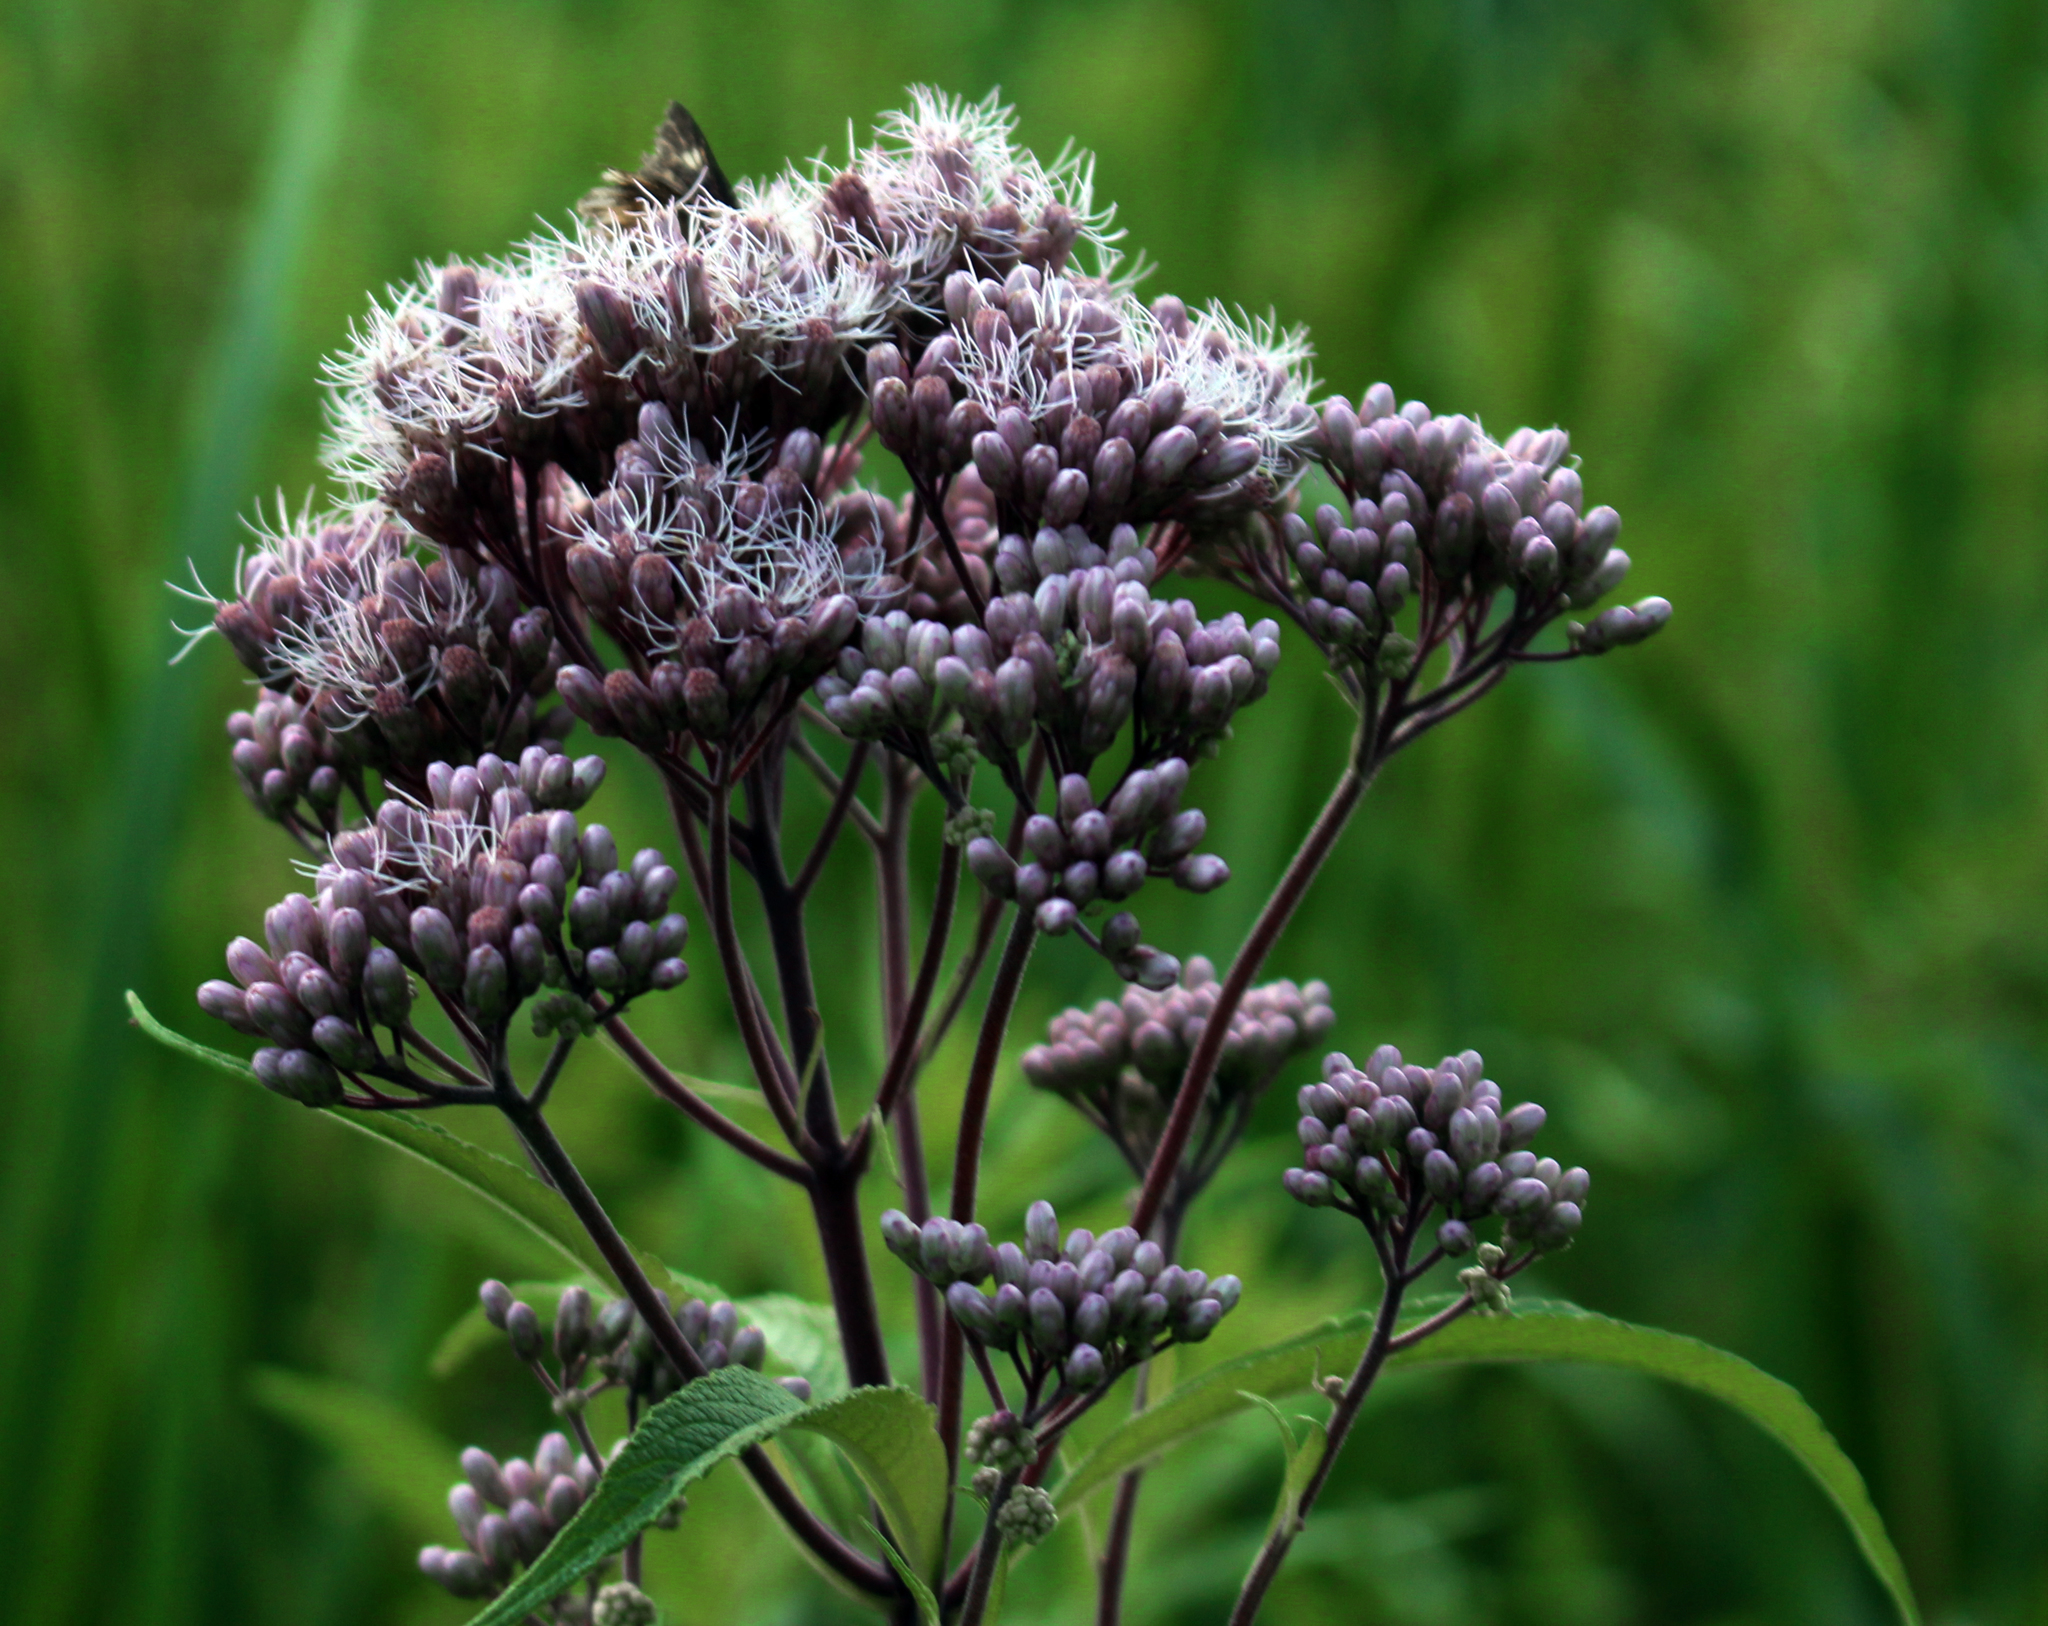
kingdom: Plantae
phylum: Tracheophyta
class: Magnoliopsida
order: Asterales
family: Asteraceae
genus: Eutrochium
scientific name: Eutrochium maculatum
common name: Spotted joe pye weed
